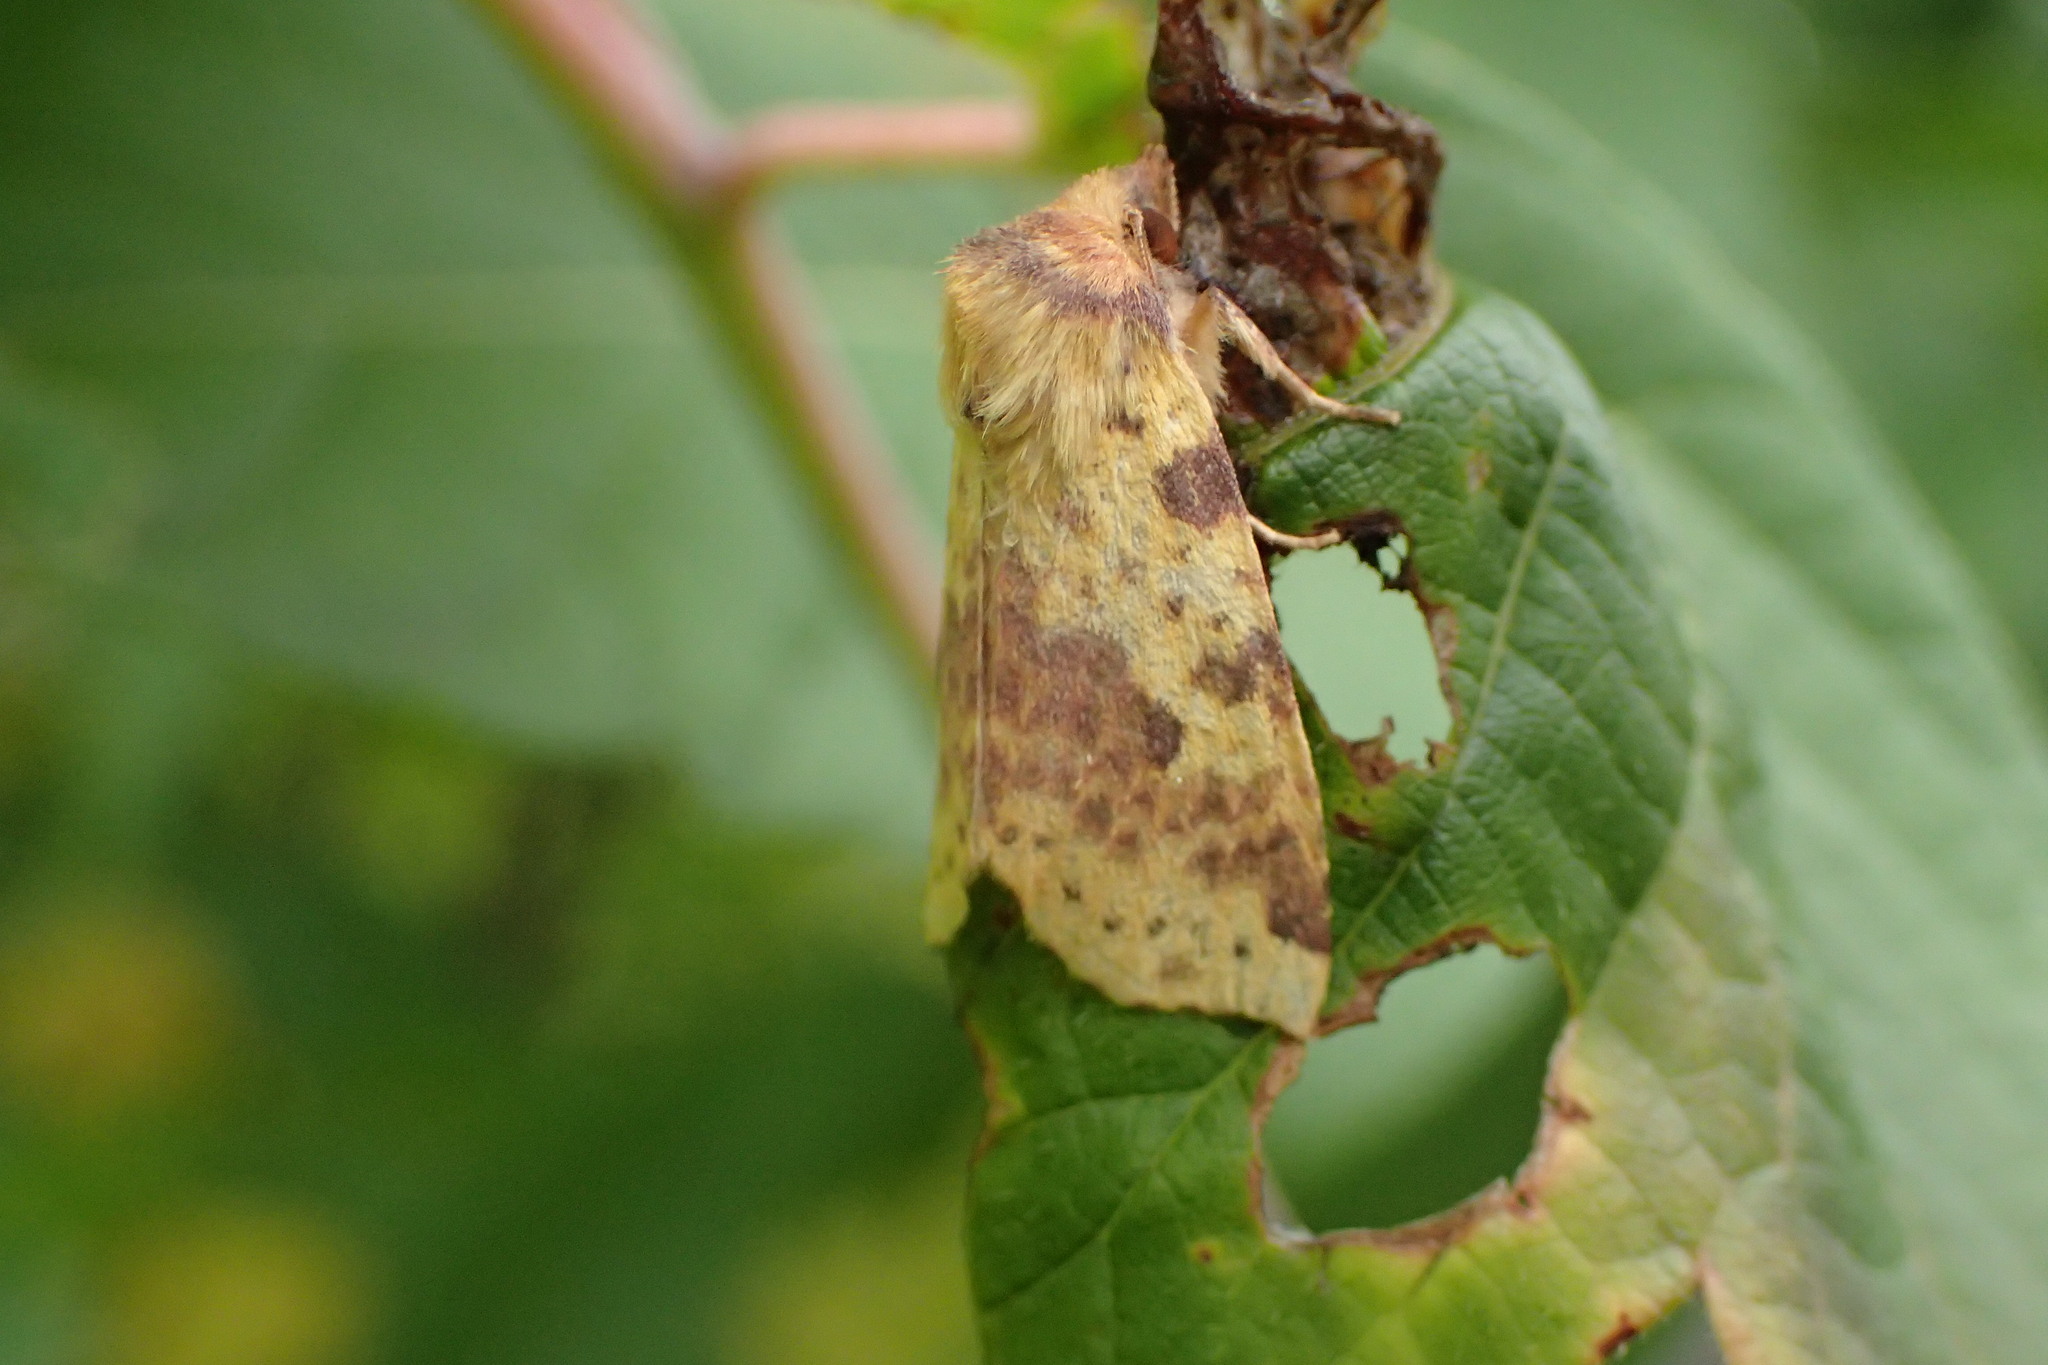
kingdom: Animalia
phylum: Arthropoda
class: Insecta
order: Lepidoptera
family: Noctuidae
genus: Xanthia
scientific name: Xanthia tatago
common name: Pink-banded sallow
